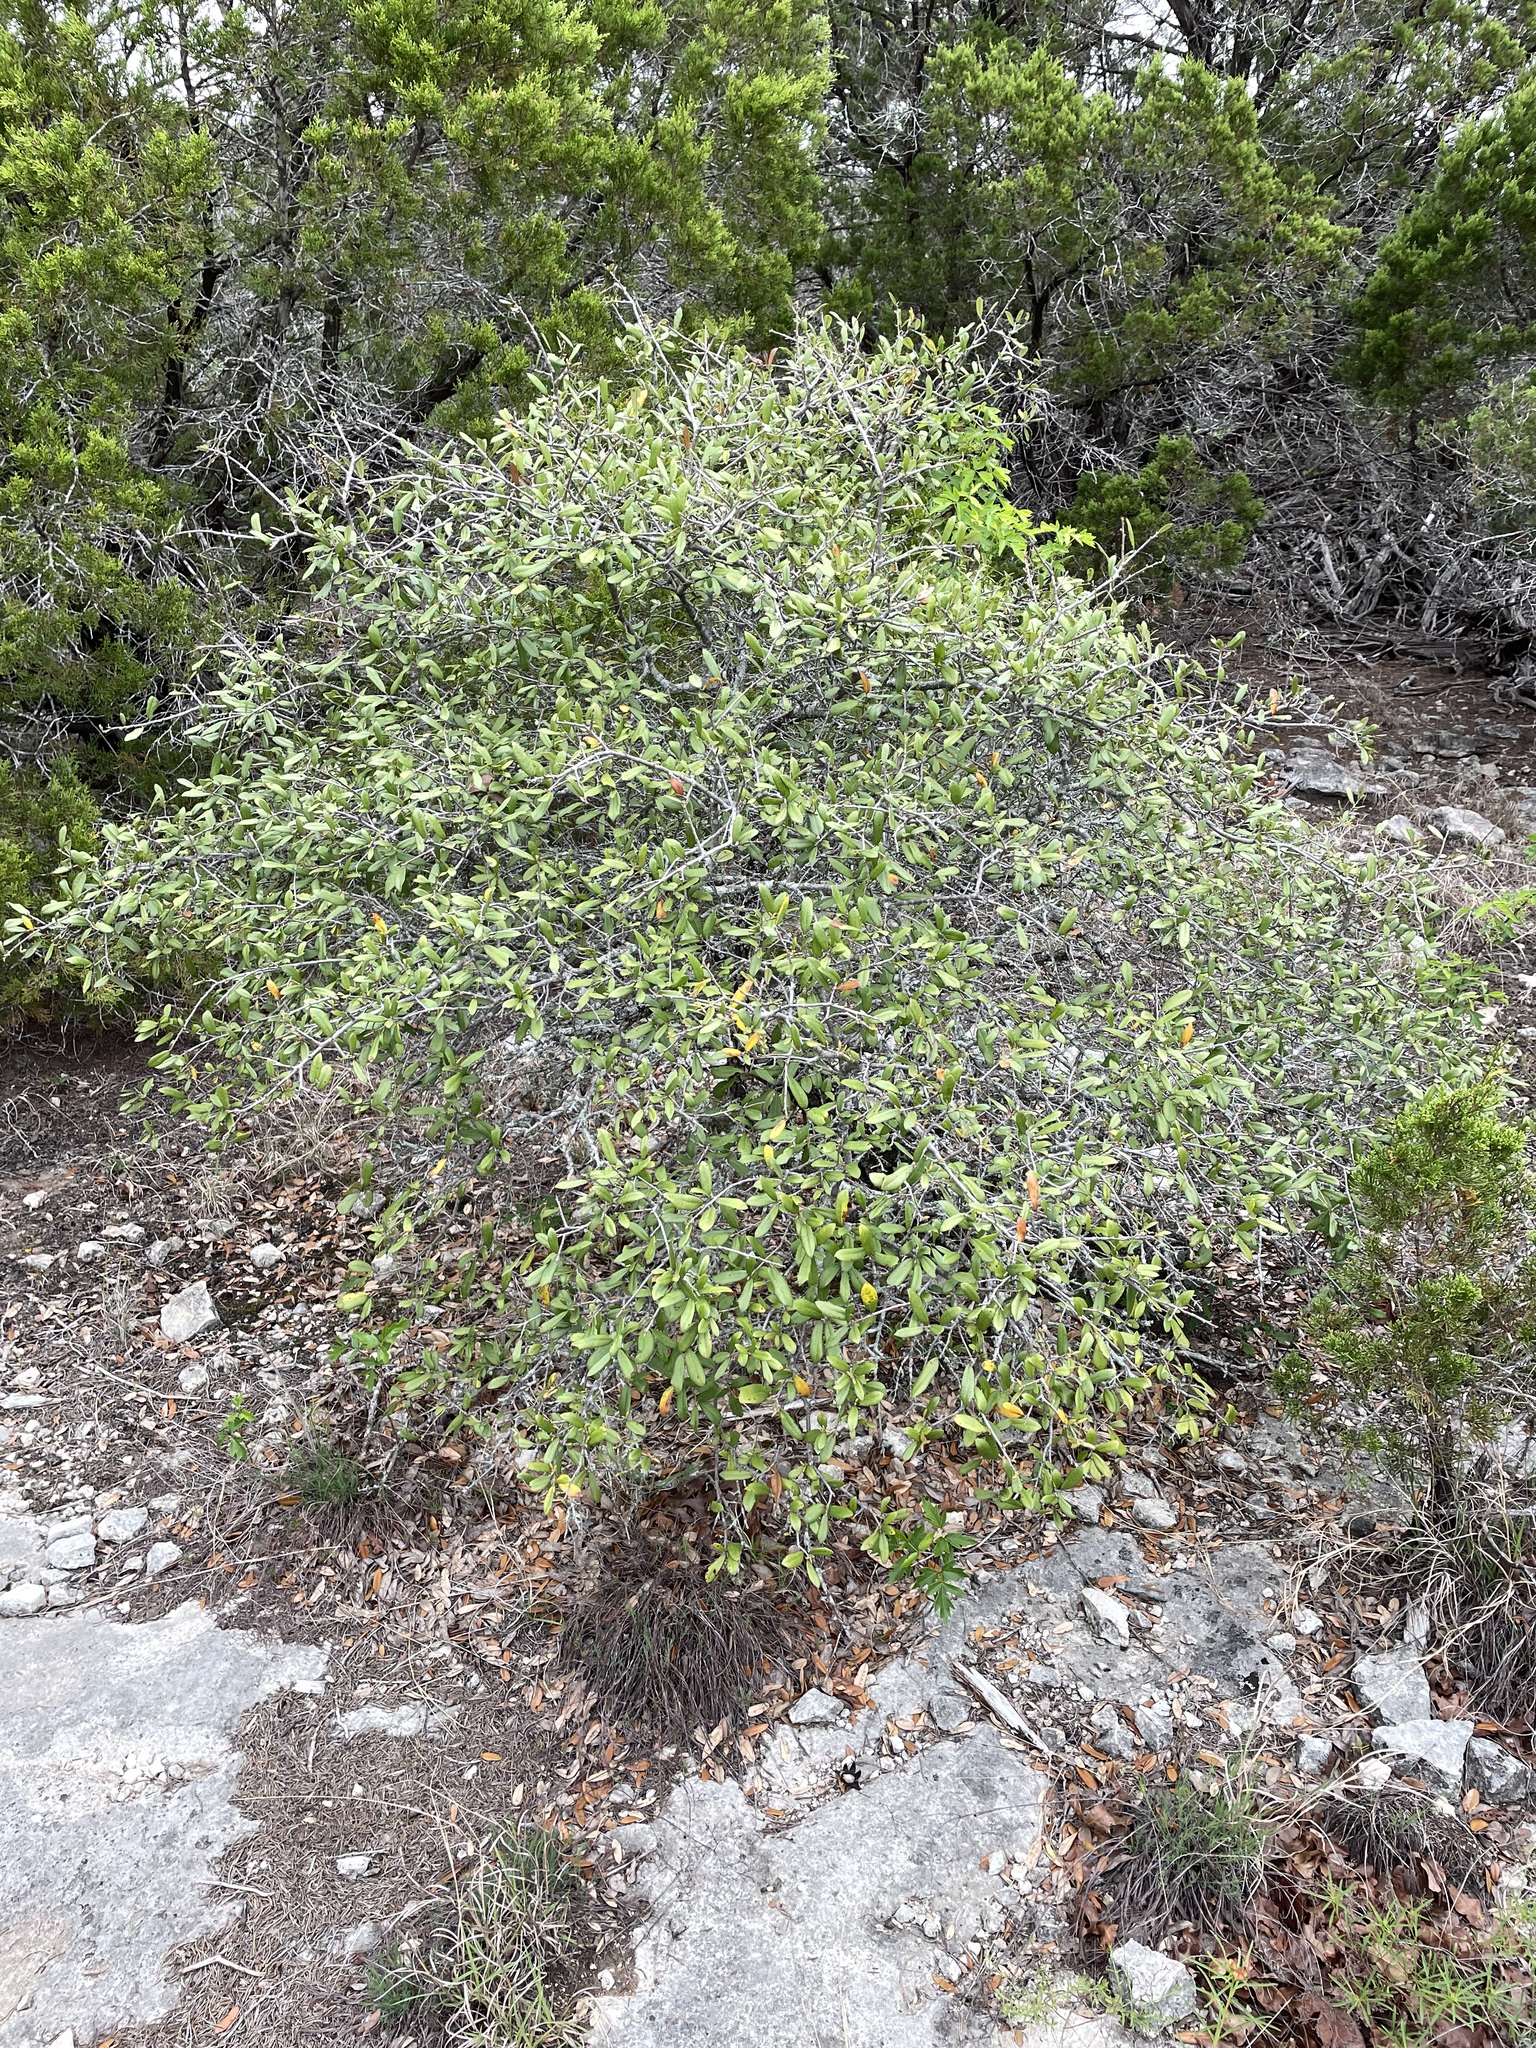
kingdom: Plantae
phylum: Tracheophyta
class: Magnoliopsida
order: Fagales
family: Fagaceae
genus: Quercus
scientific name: Quercus fusiformis
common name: Texas live oak
